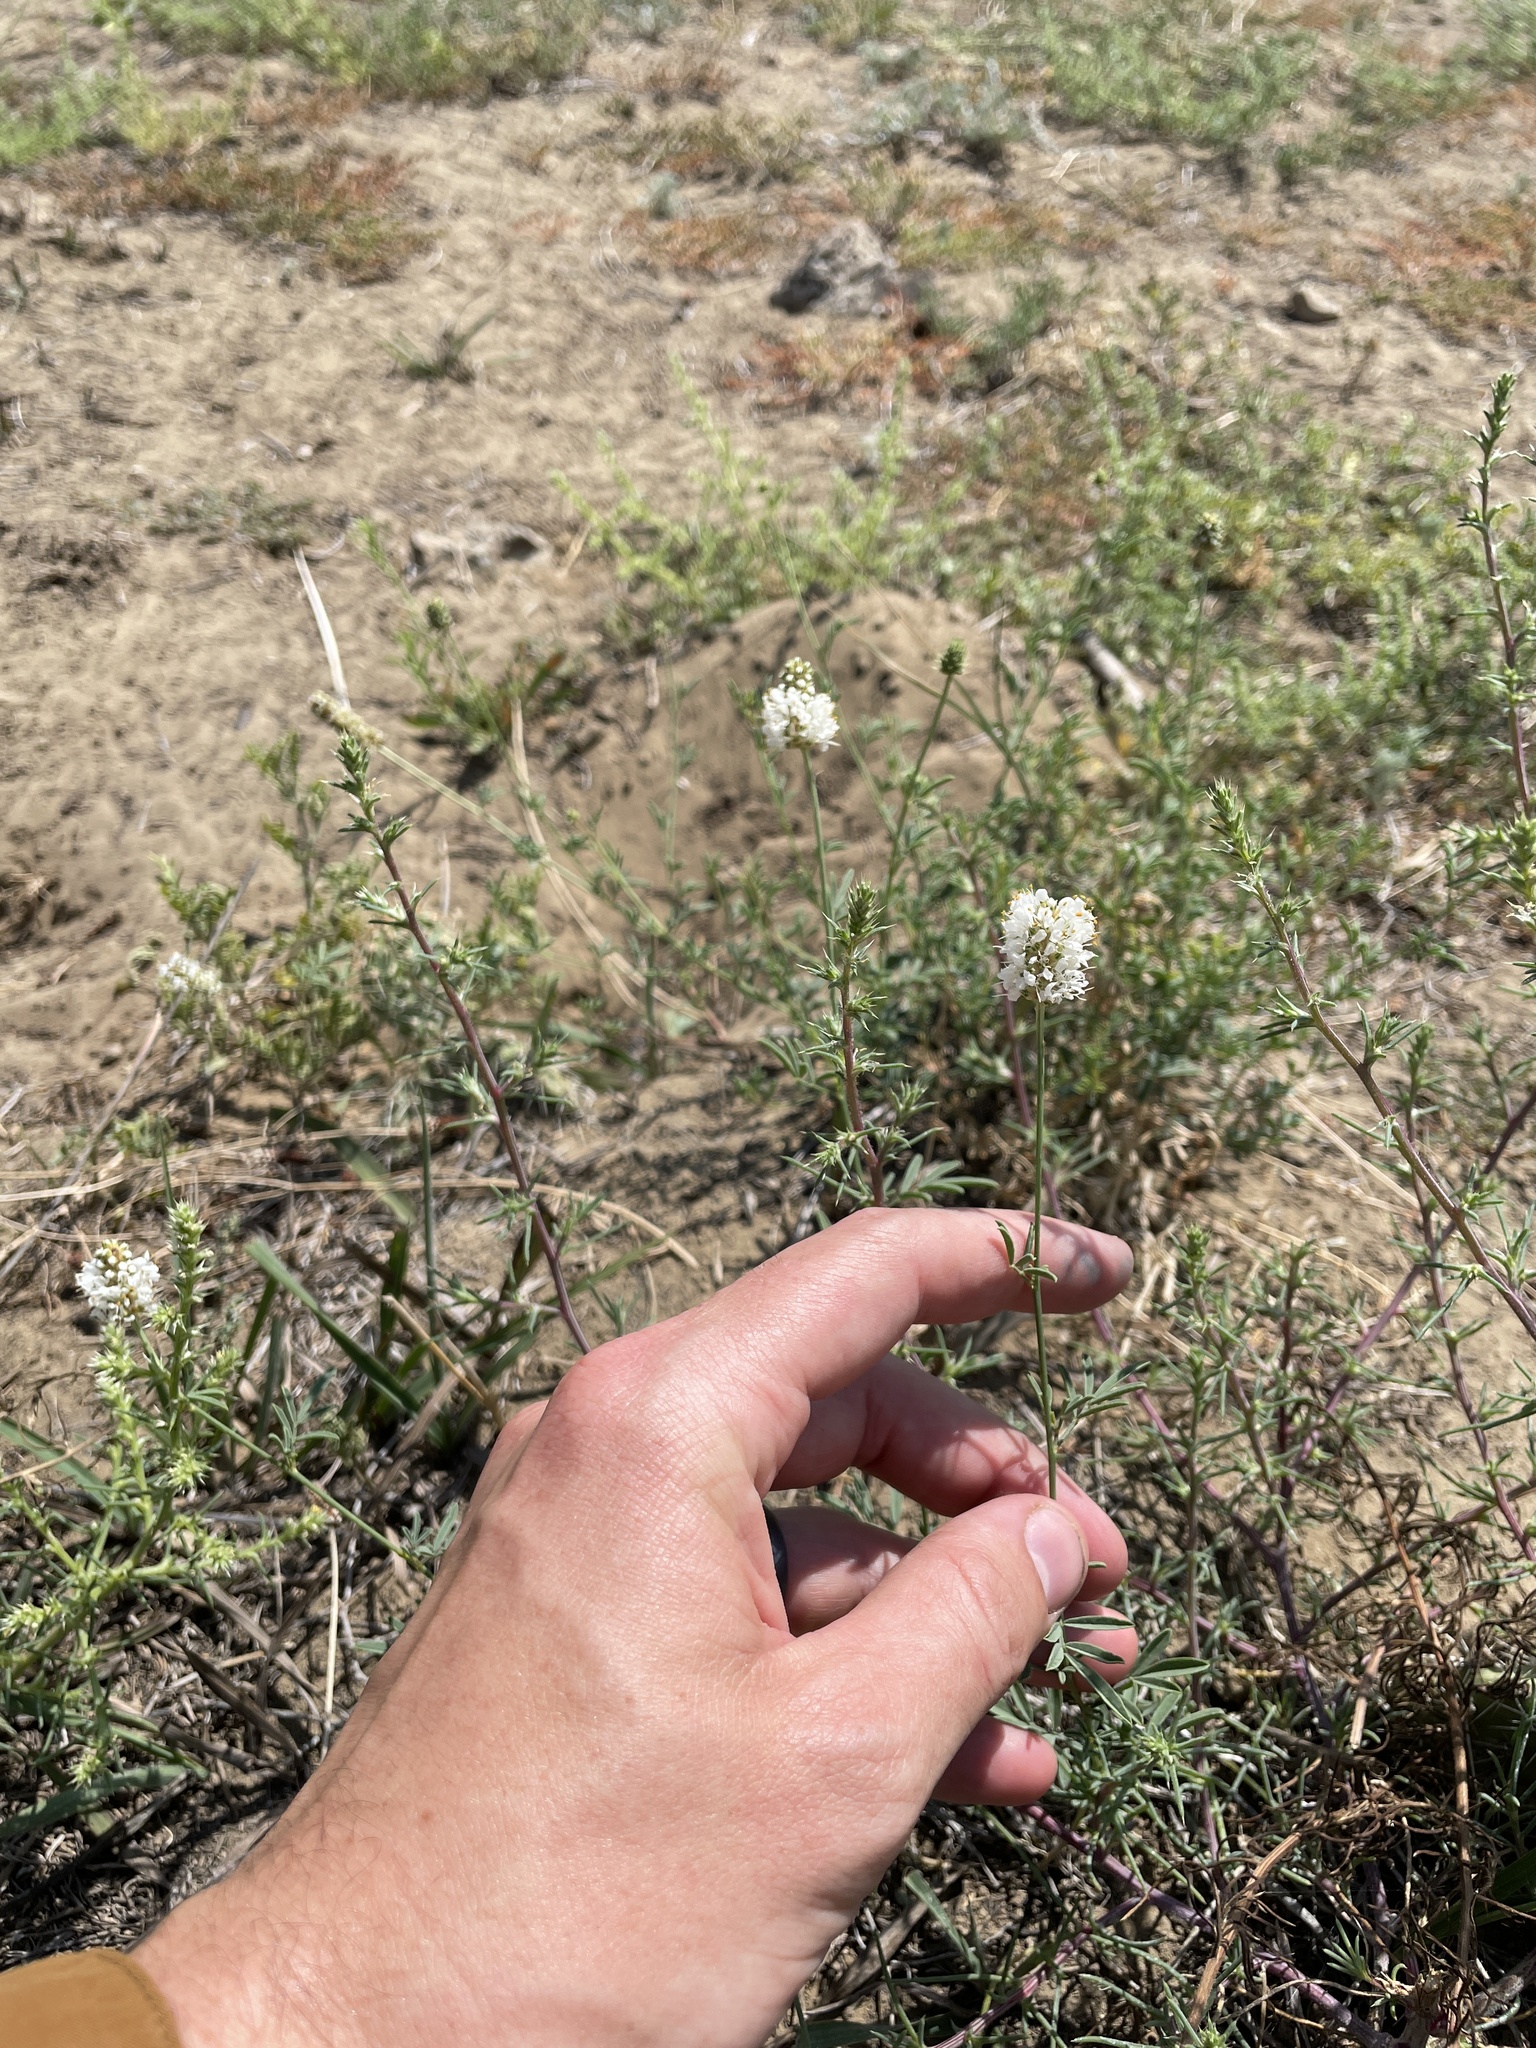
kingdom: Plantae
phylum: Tracheophyta
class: Magnoliopsida
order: Fabales
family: Fabaceae
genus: Dalea
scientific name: Dalea candida
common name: White prairie-clover
